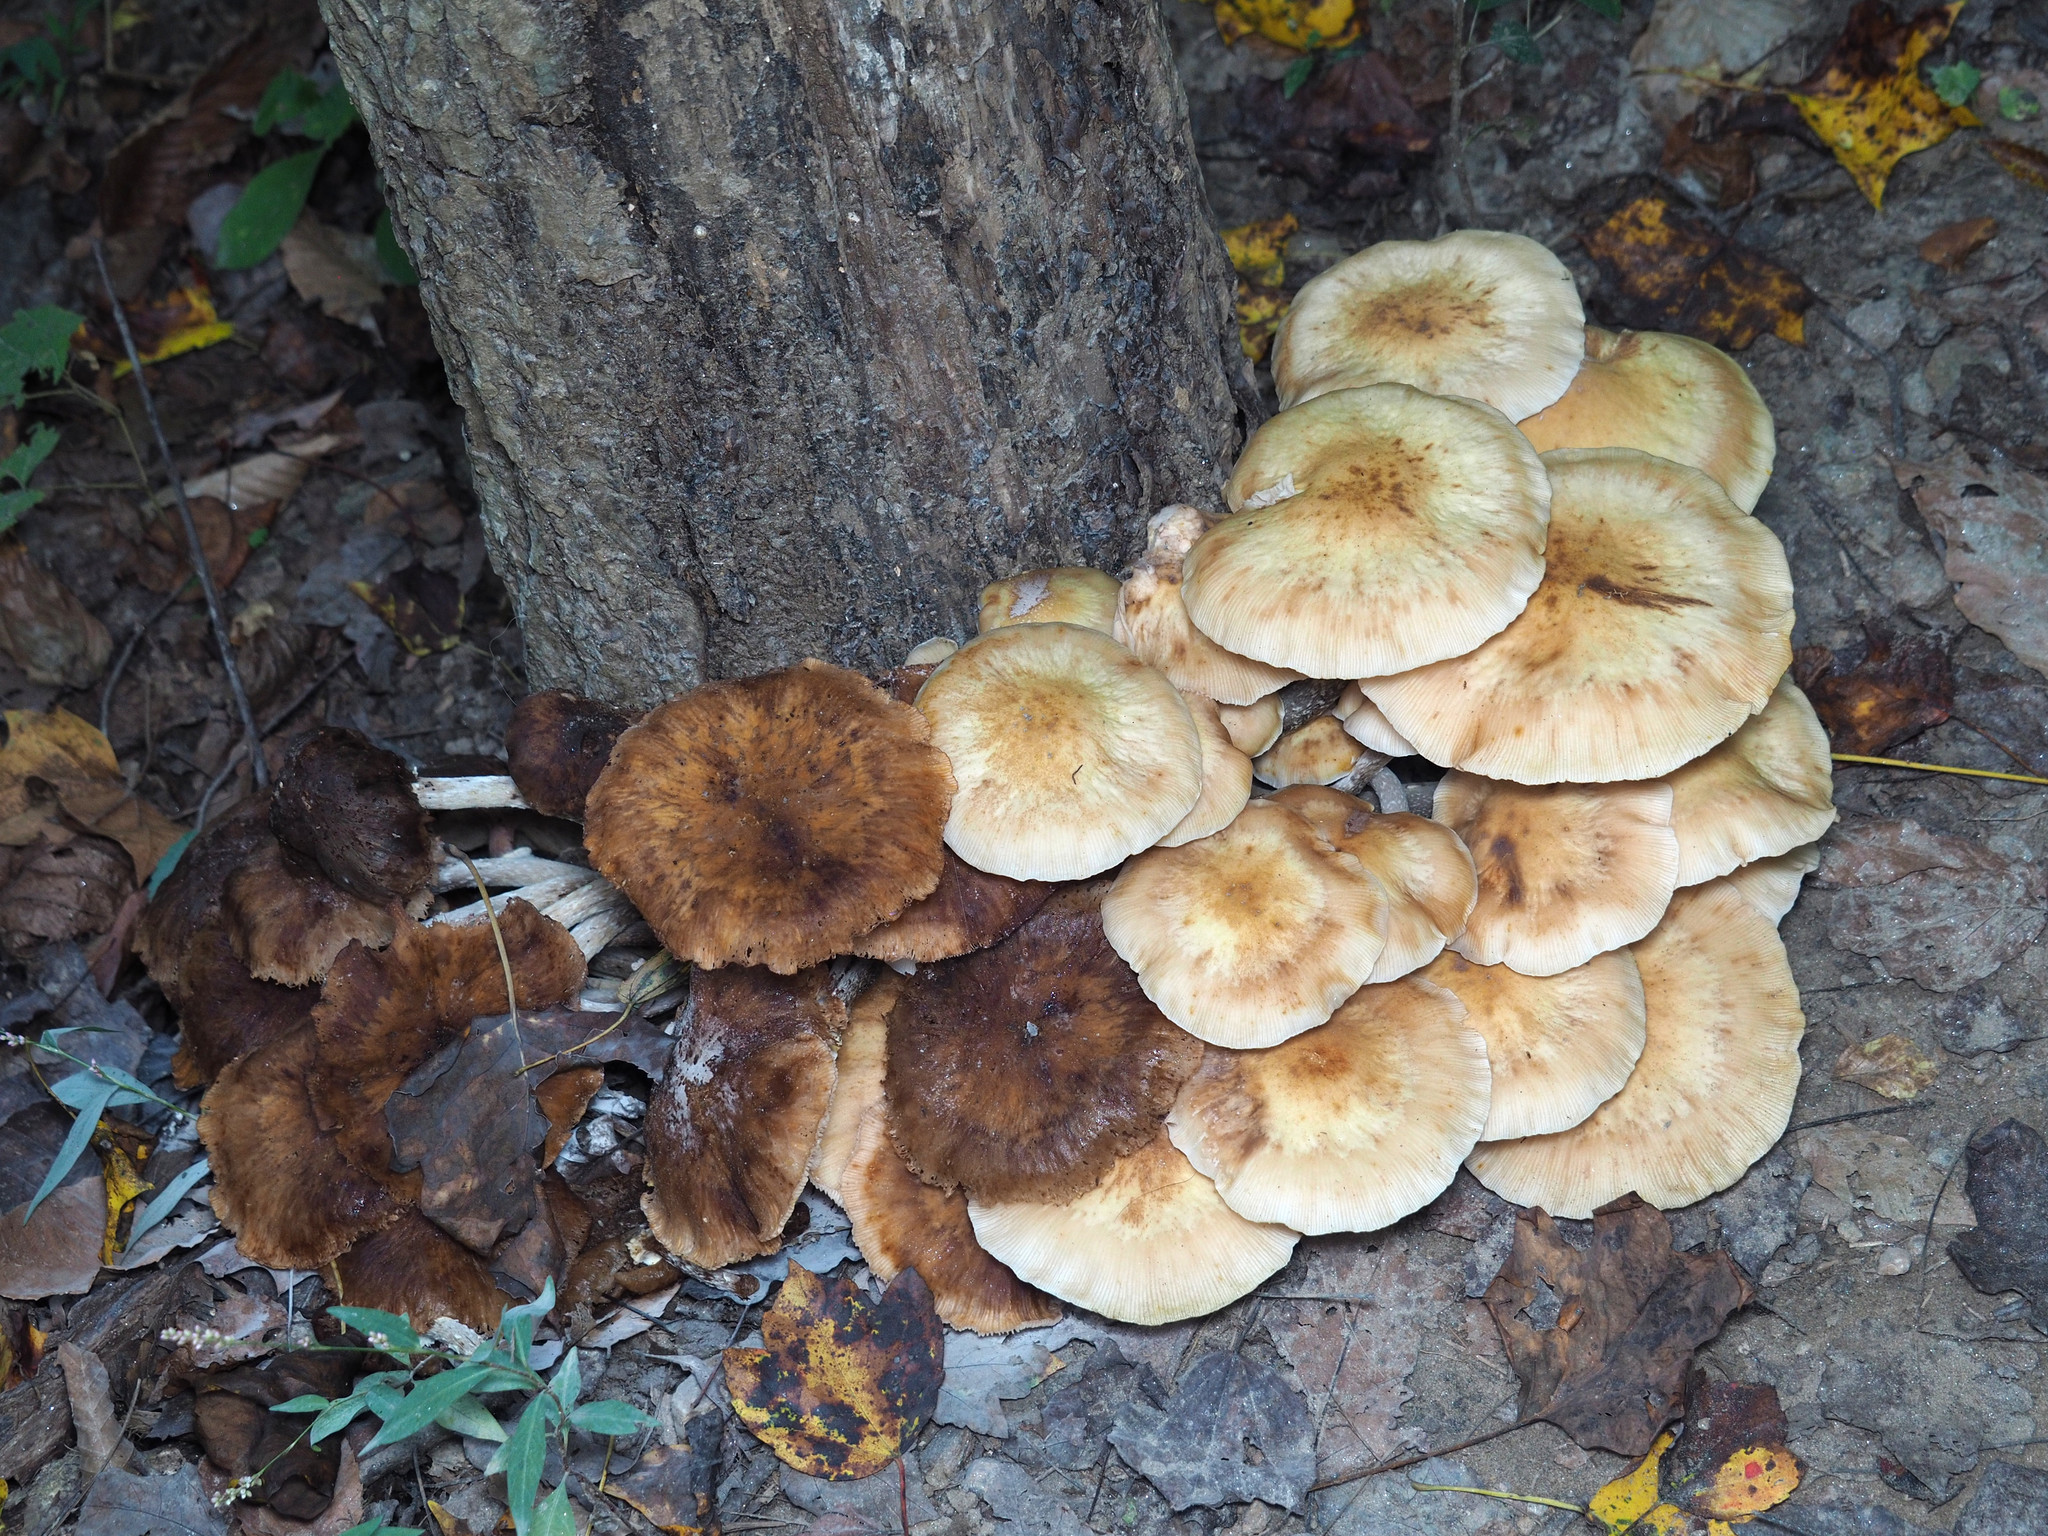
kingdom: Fungi
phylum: Basidiomycota
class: Agaricomycetes
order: Agaricales
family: Physalacriaceae
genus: Armillaria
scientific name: Armillaria mellea
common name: Honey fungus
